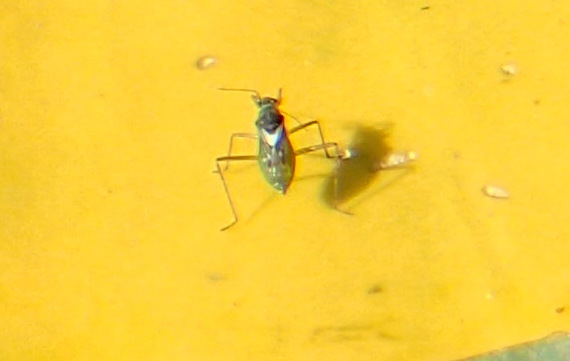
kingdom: Animalia
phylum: Arthropoda
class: Insecta
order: Hemiptera
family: Mesoveliidae
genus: Mesovelia
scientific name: Mesovelia
